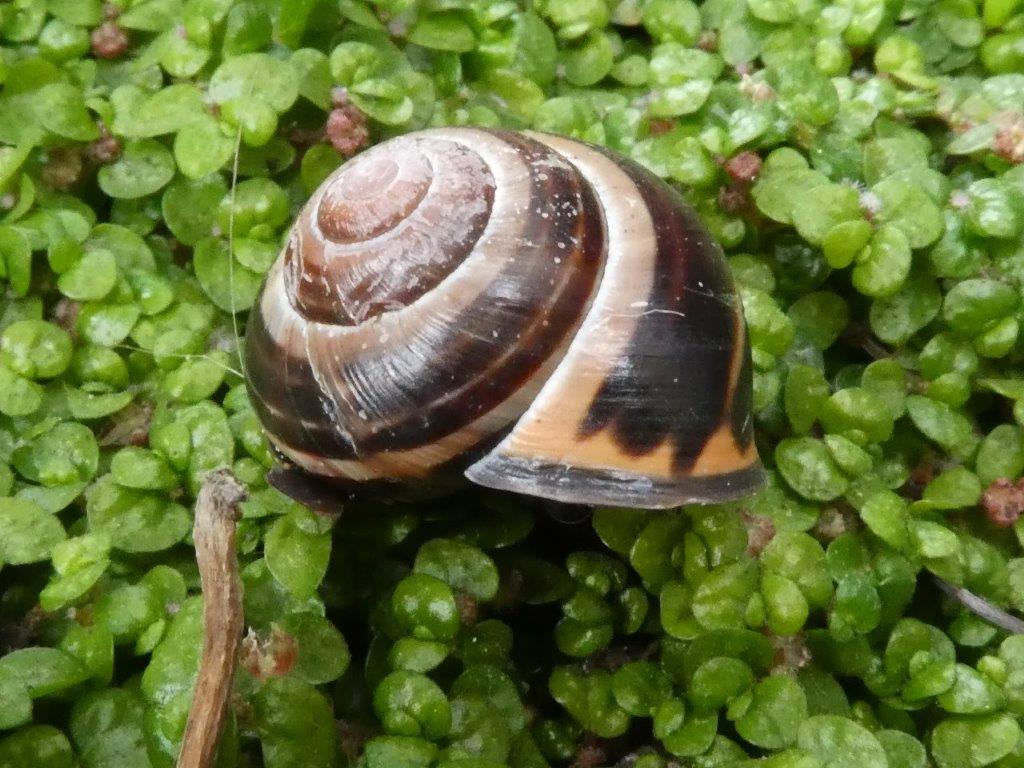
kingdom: Animalia
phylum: Mollusca
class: Gastropoda
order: Stylommatophora
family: Helicidae
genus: Cepaea
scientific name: Cepaea nemoralis
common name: Grovesnail
